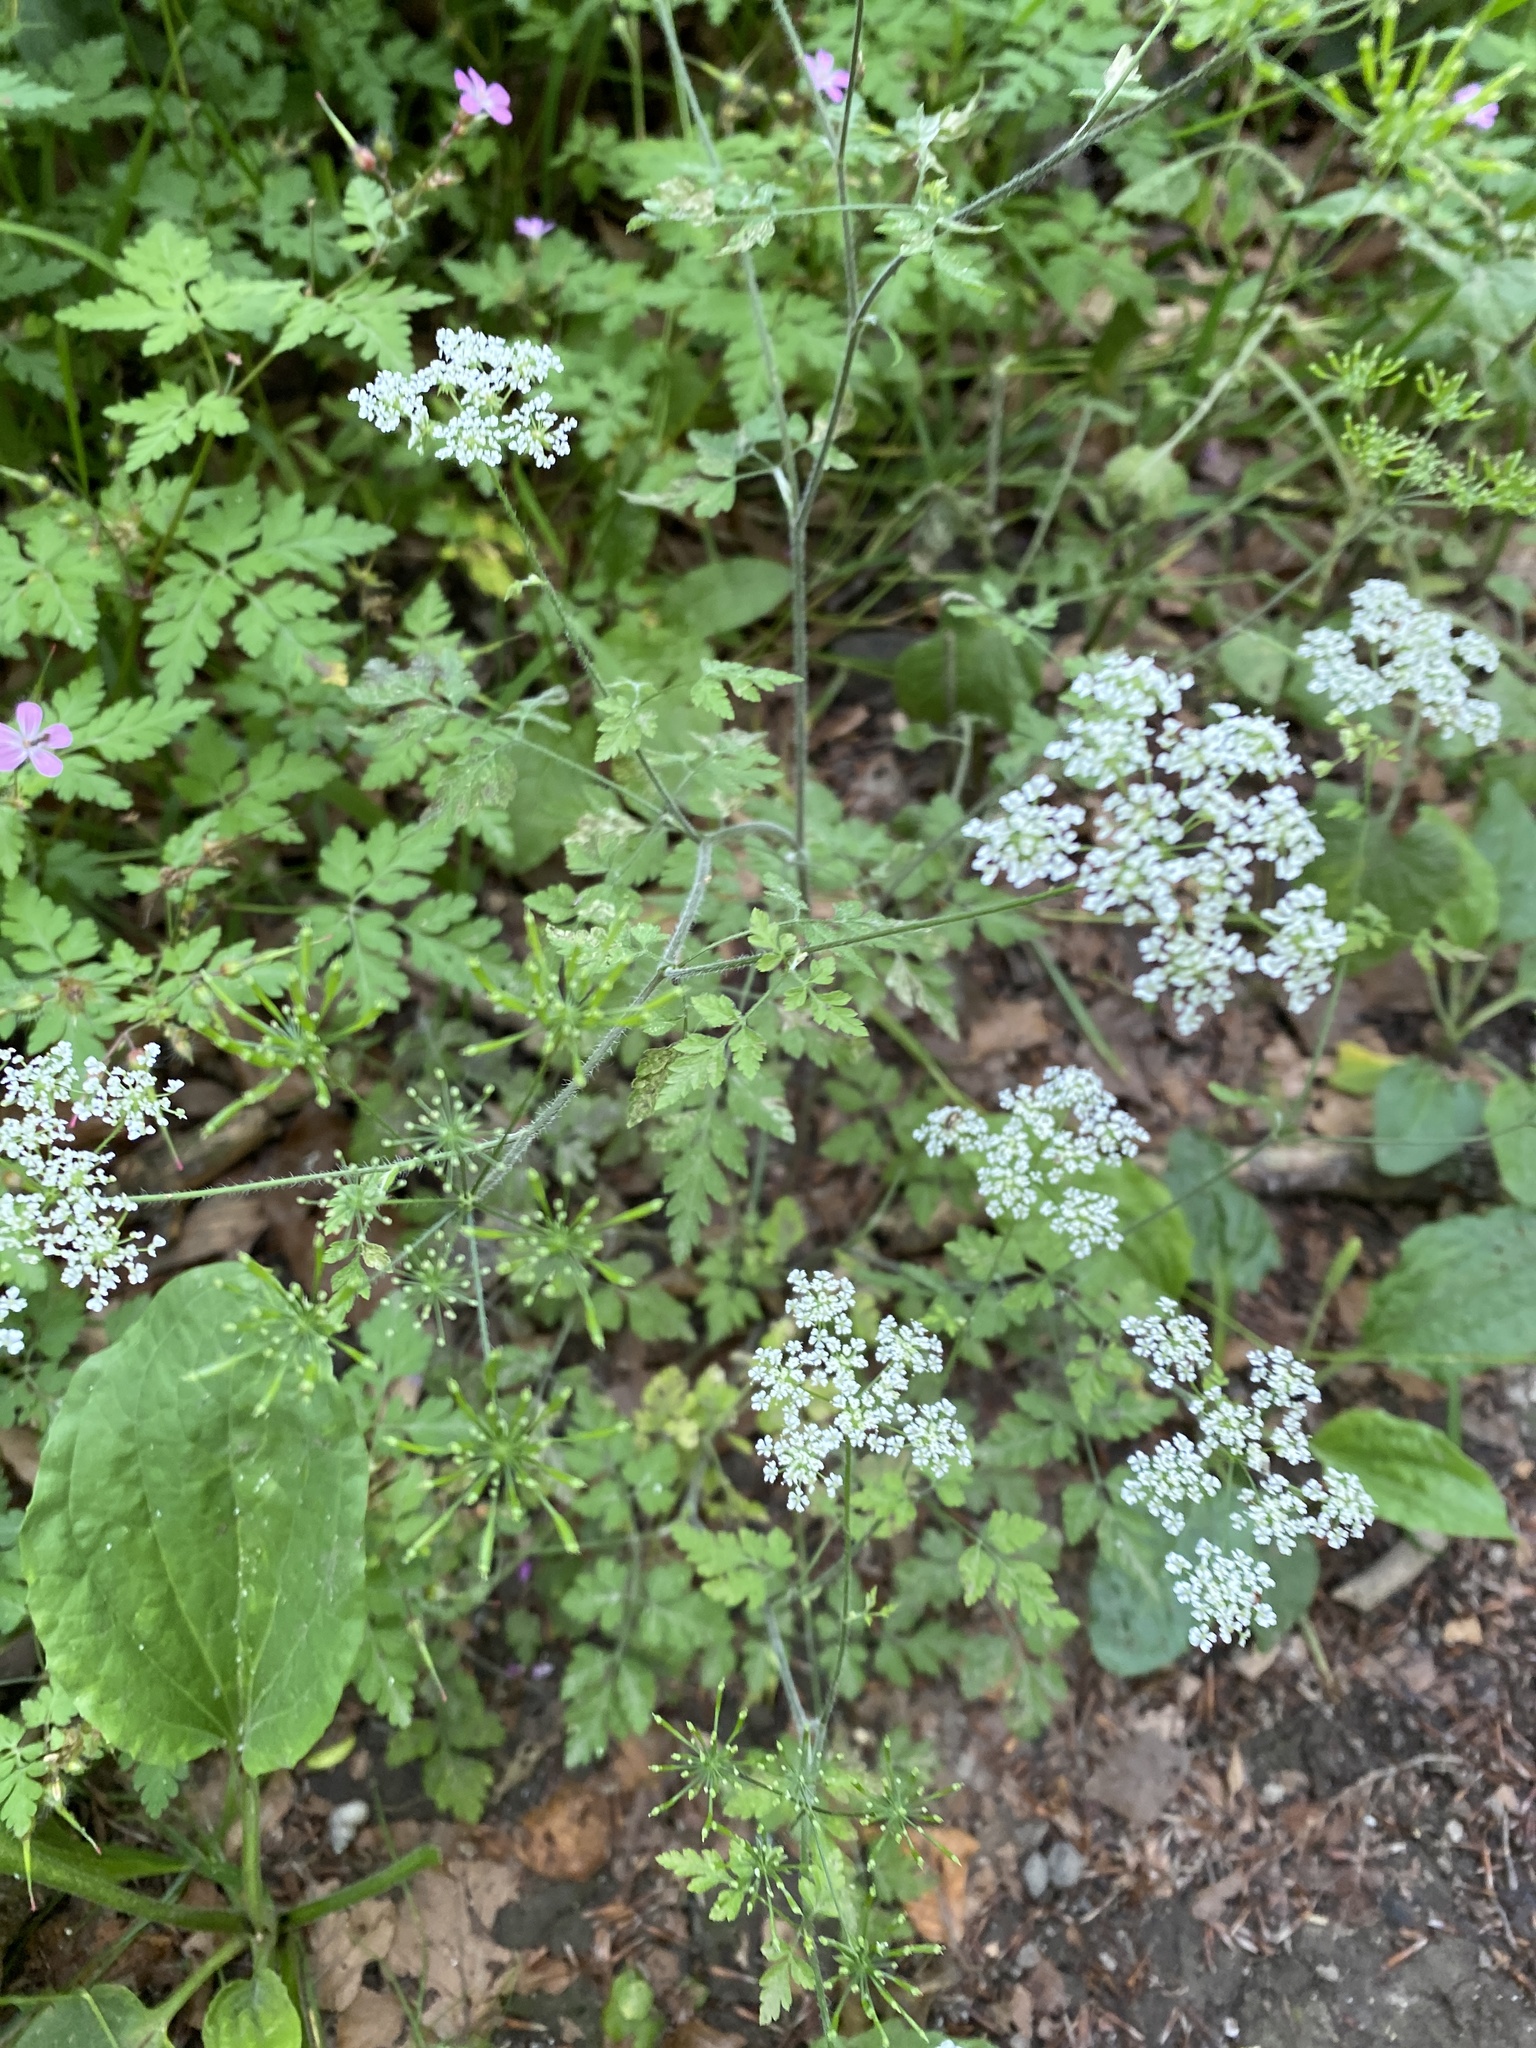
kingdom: Plantae
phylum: Tracheophyta
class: Magnoliopsida
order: Apiales
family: Apiaceae
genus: Chaerophyllum
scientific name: Chaerophyllum temulum
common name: Rough chervil
